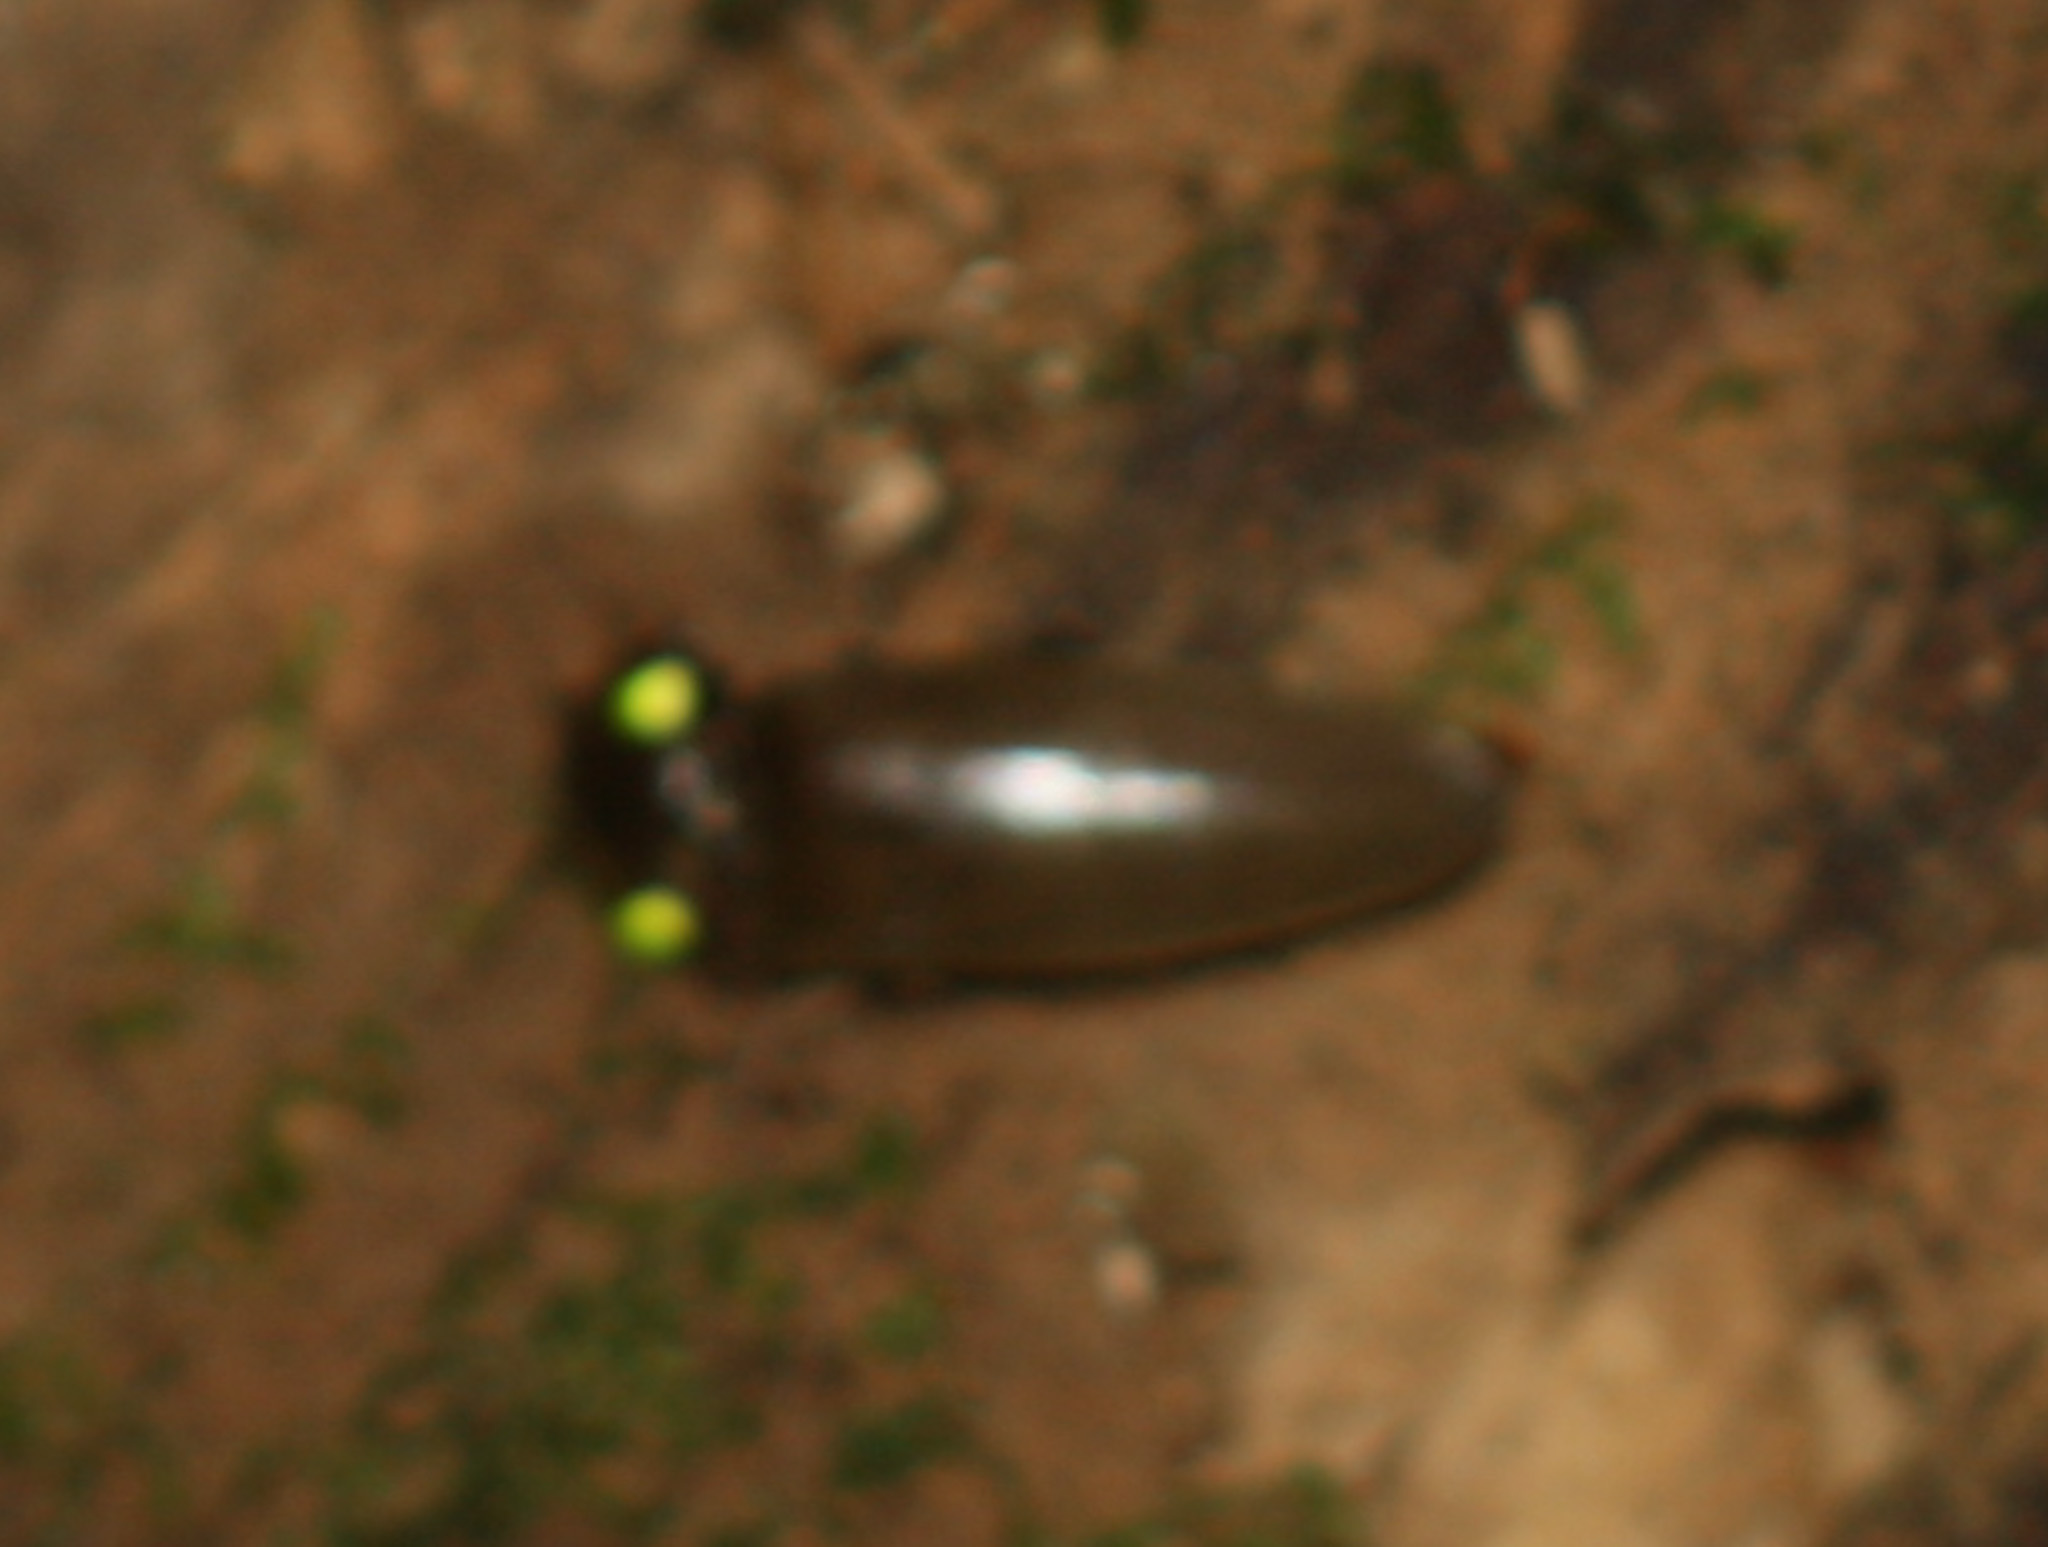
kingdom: Animalia
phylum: Arthropoda
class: Insecta
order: Coleoptera
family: Elateridae
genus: Pyrophorus
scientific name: Pyrophorus noctilucus
